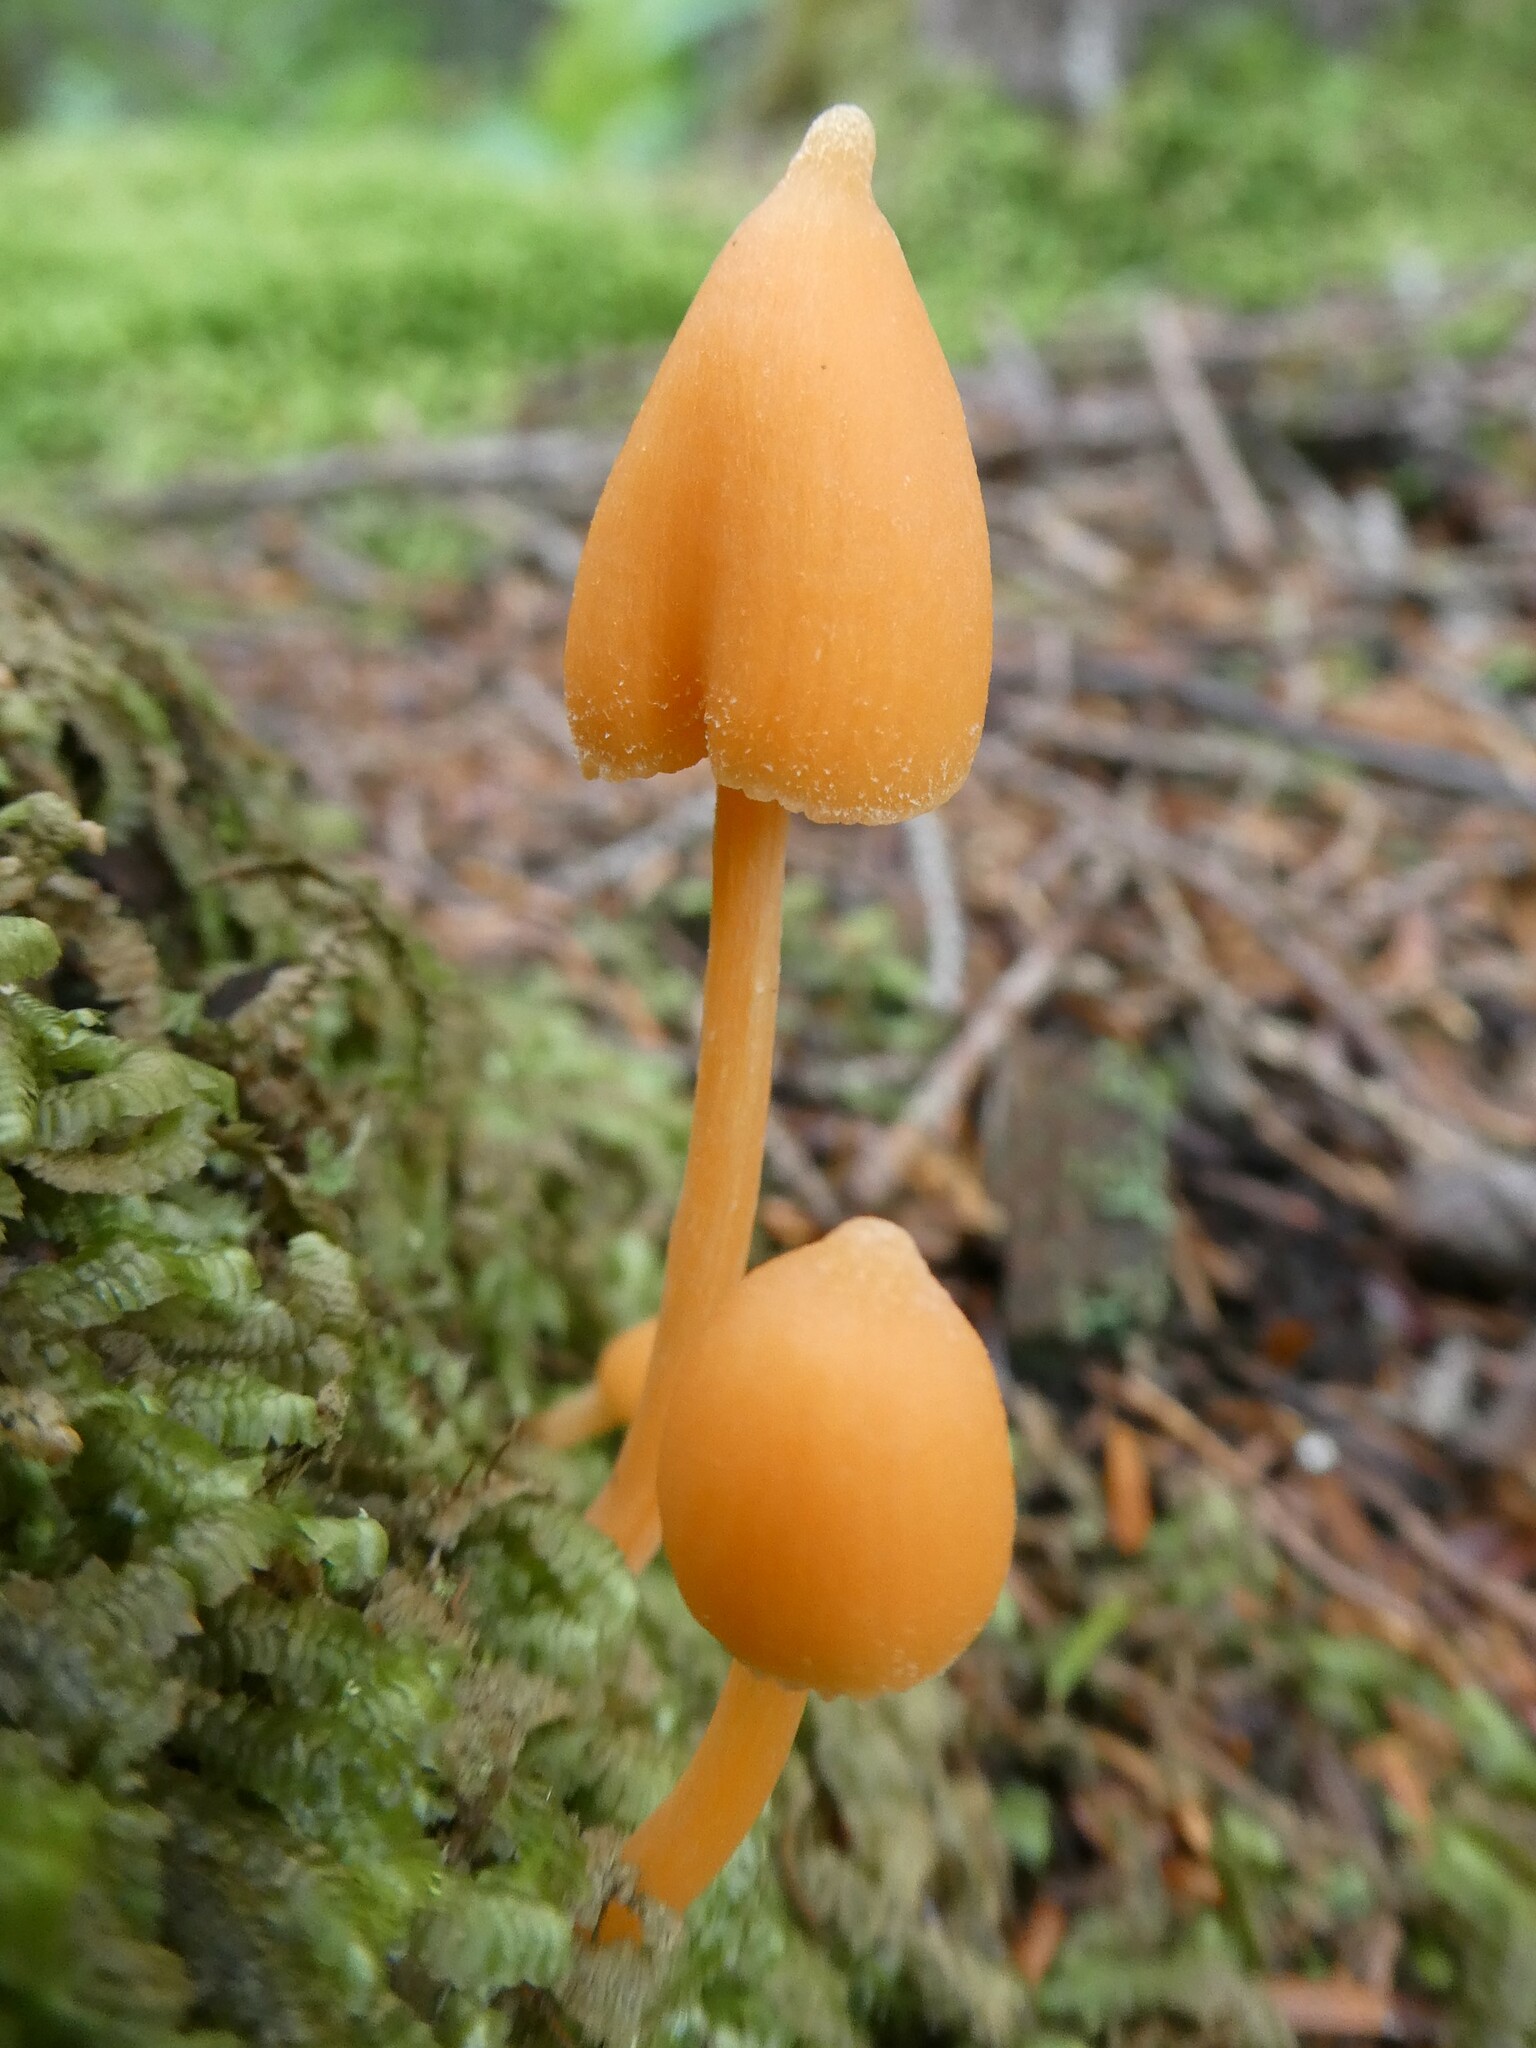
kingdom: Fungi
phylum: Basidiomycota
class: Agaricomycetes
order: Agaricales
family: Entolomataceae
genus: Entoloma
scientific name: Entoloma quadratum
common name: Salmon pinkgill
